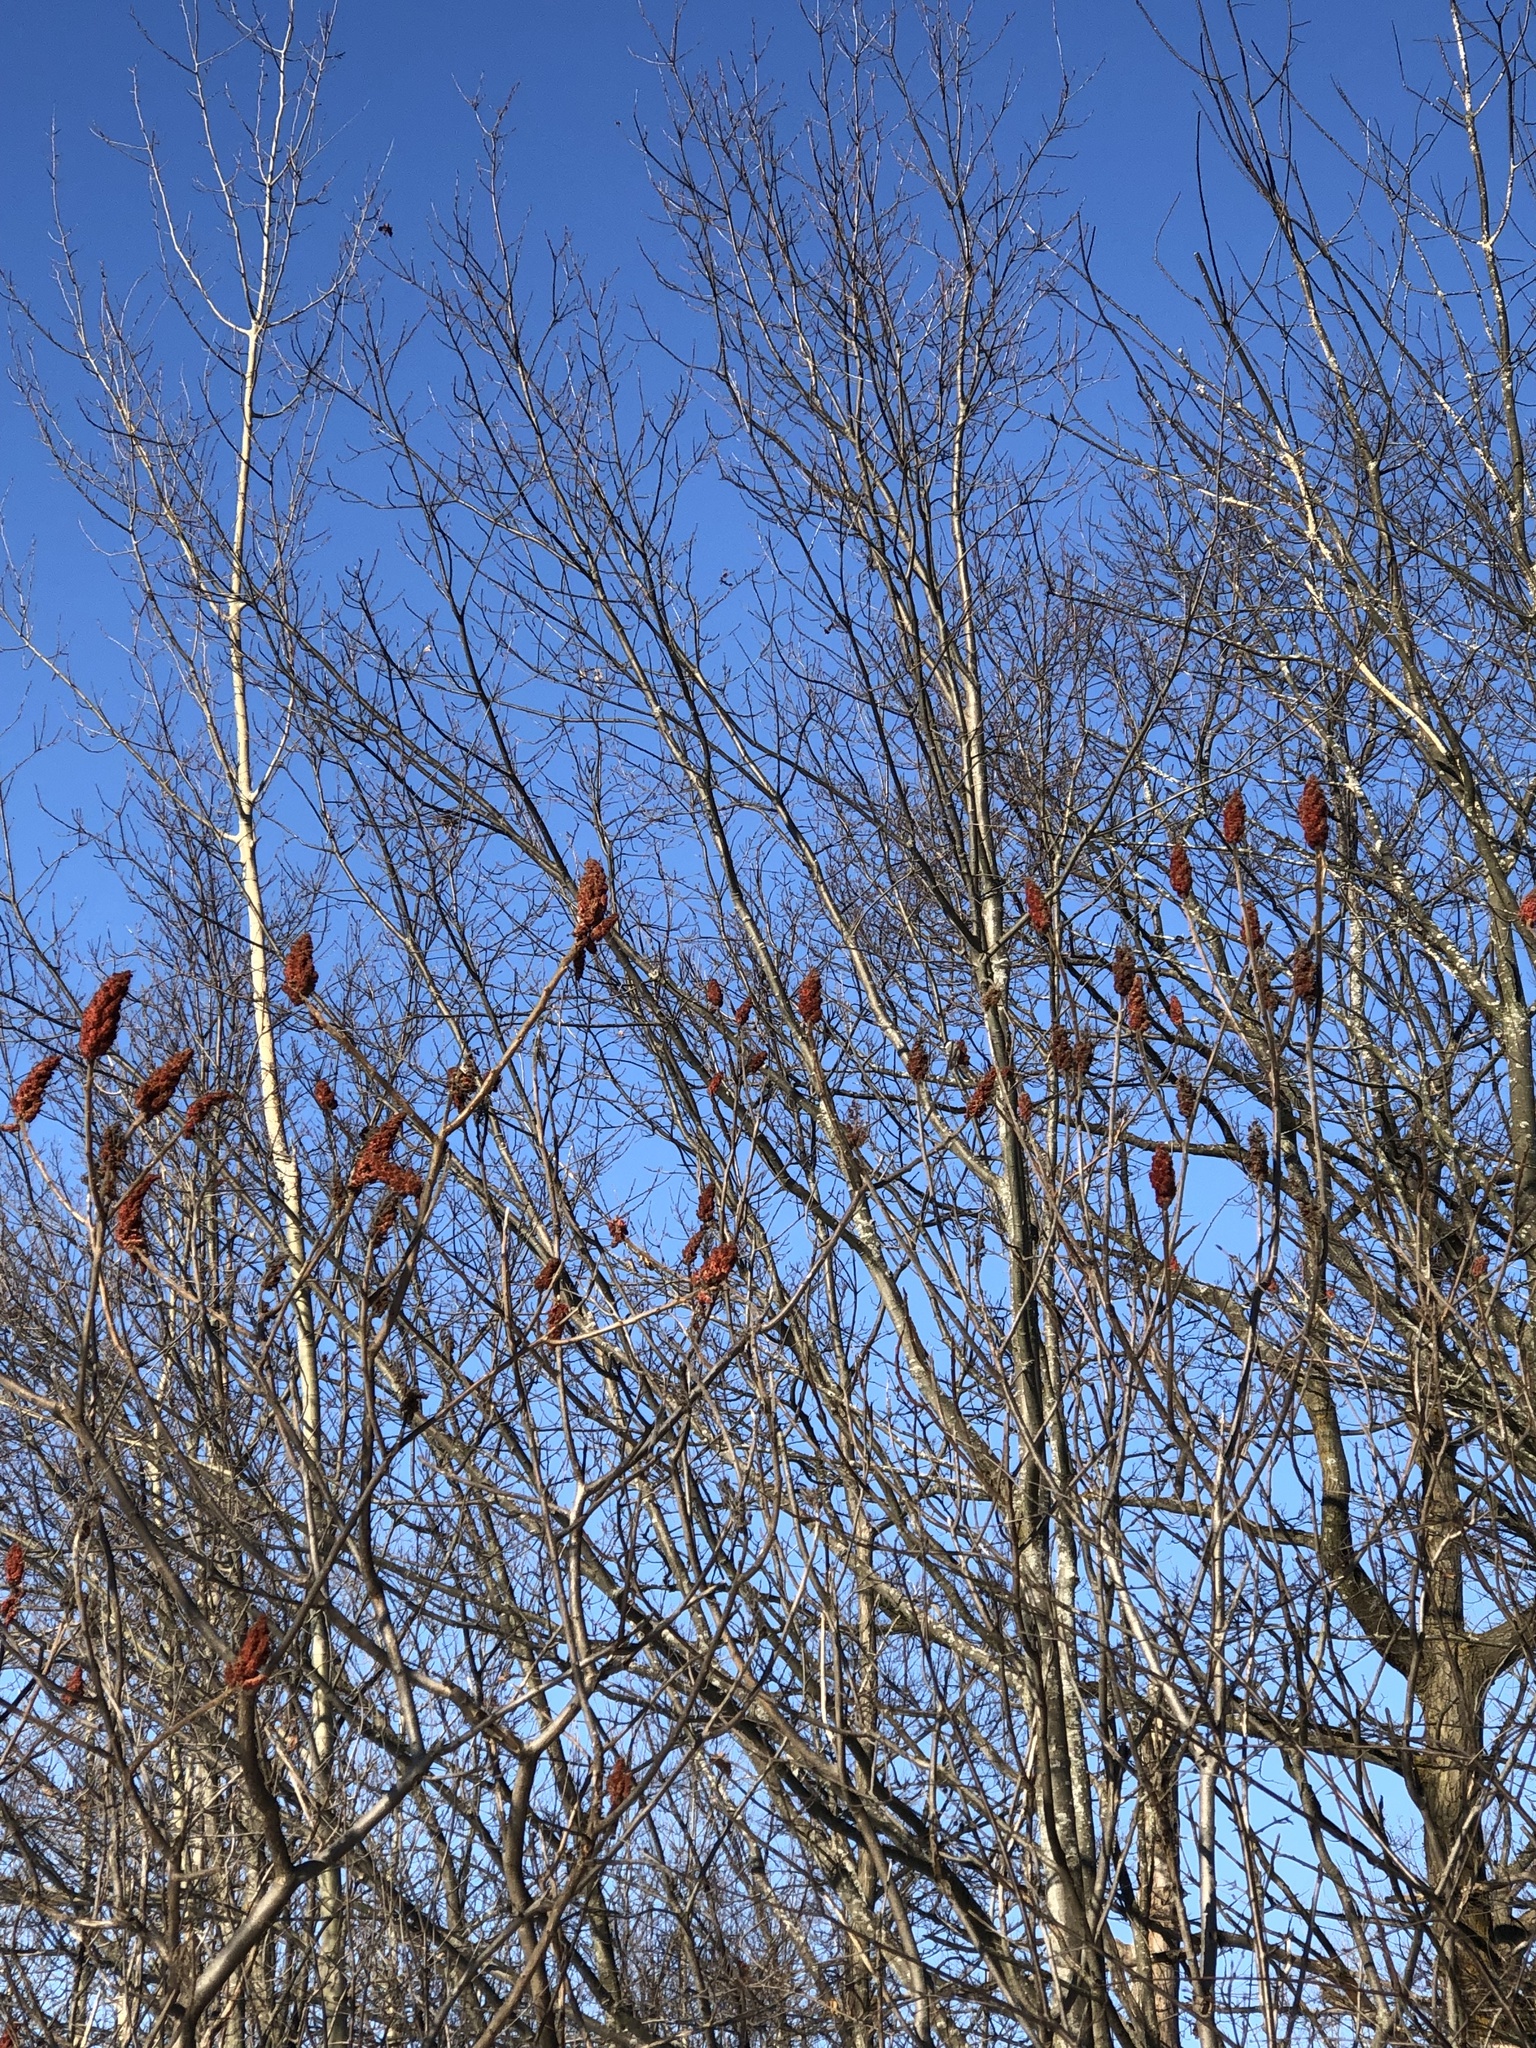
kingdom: Animalia
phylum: Chordata
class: Aves
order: Passeriformes
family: Paridae
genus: Poecile
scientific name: Poecile atricapillus
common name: Black-capped chickadee
